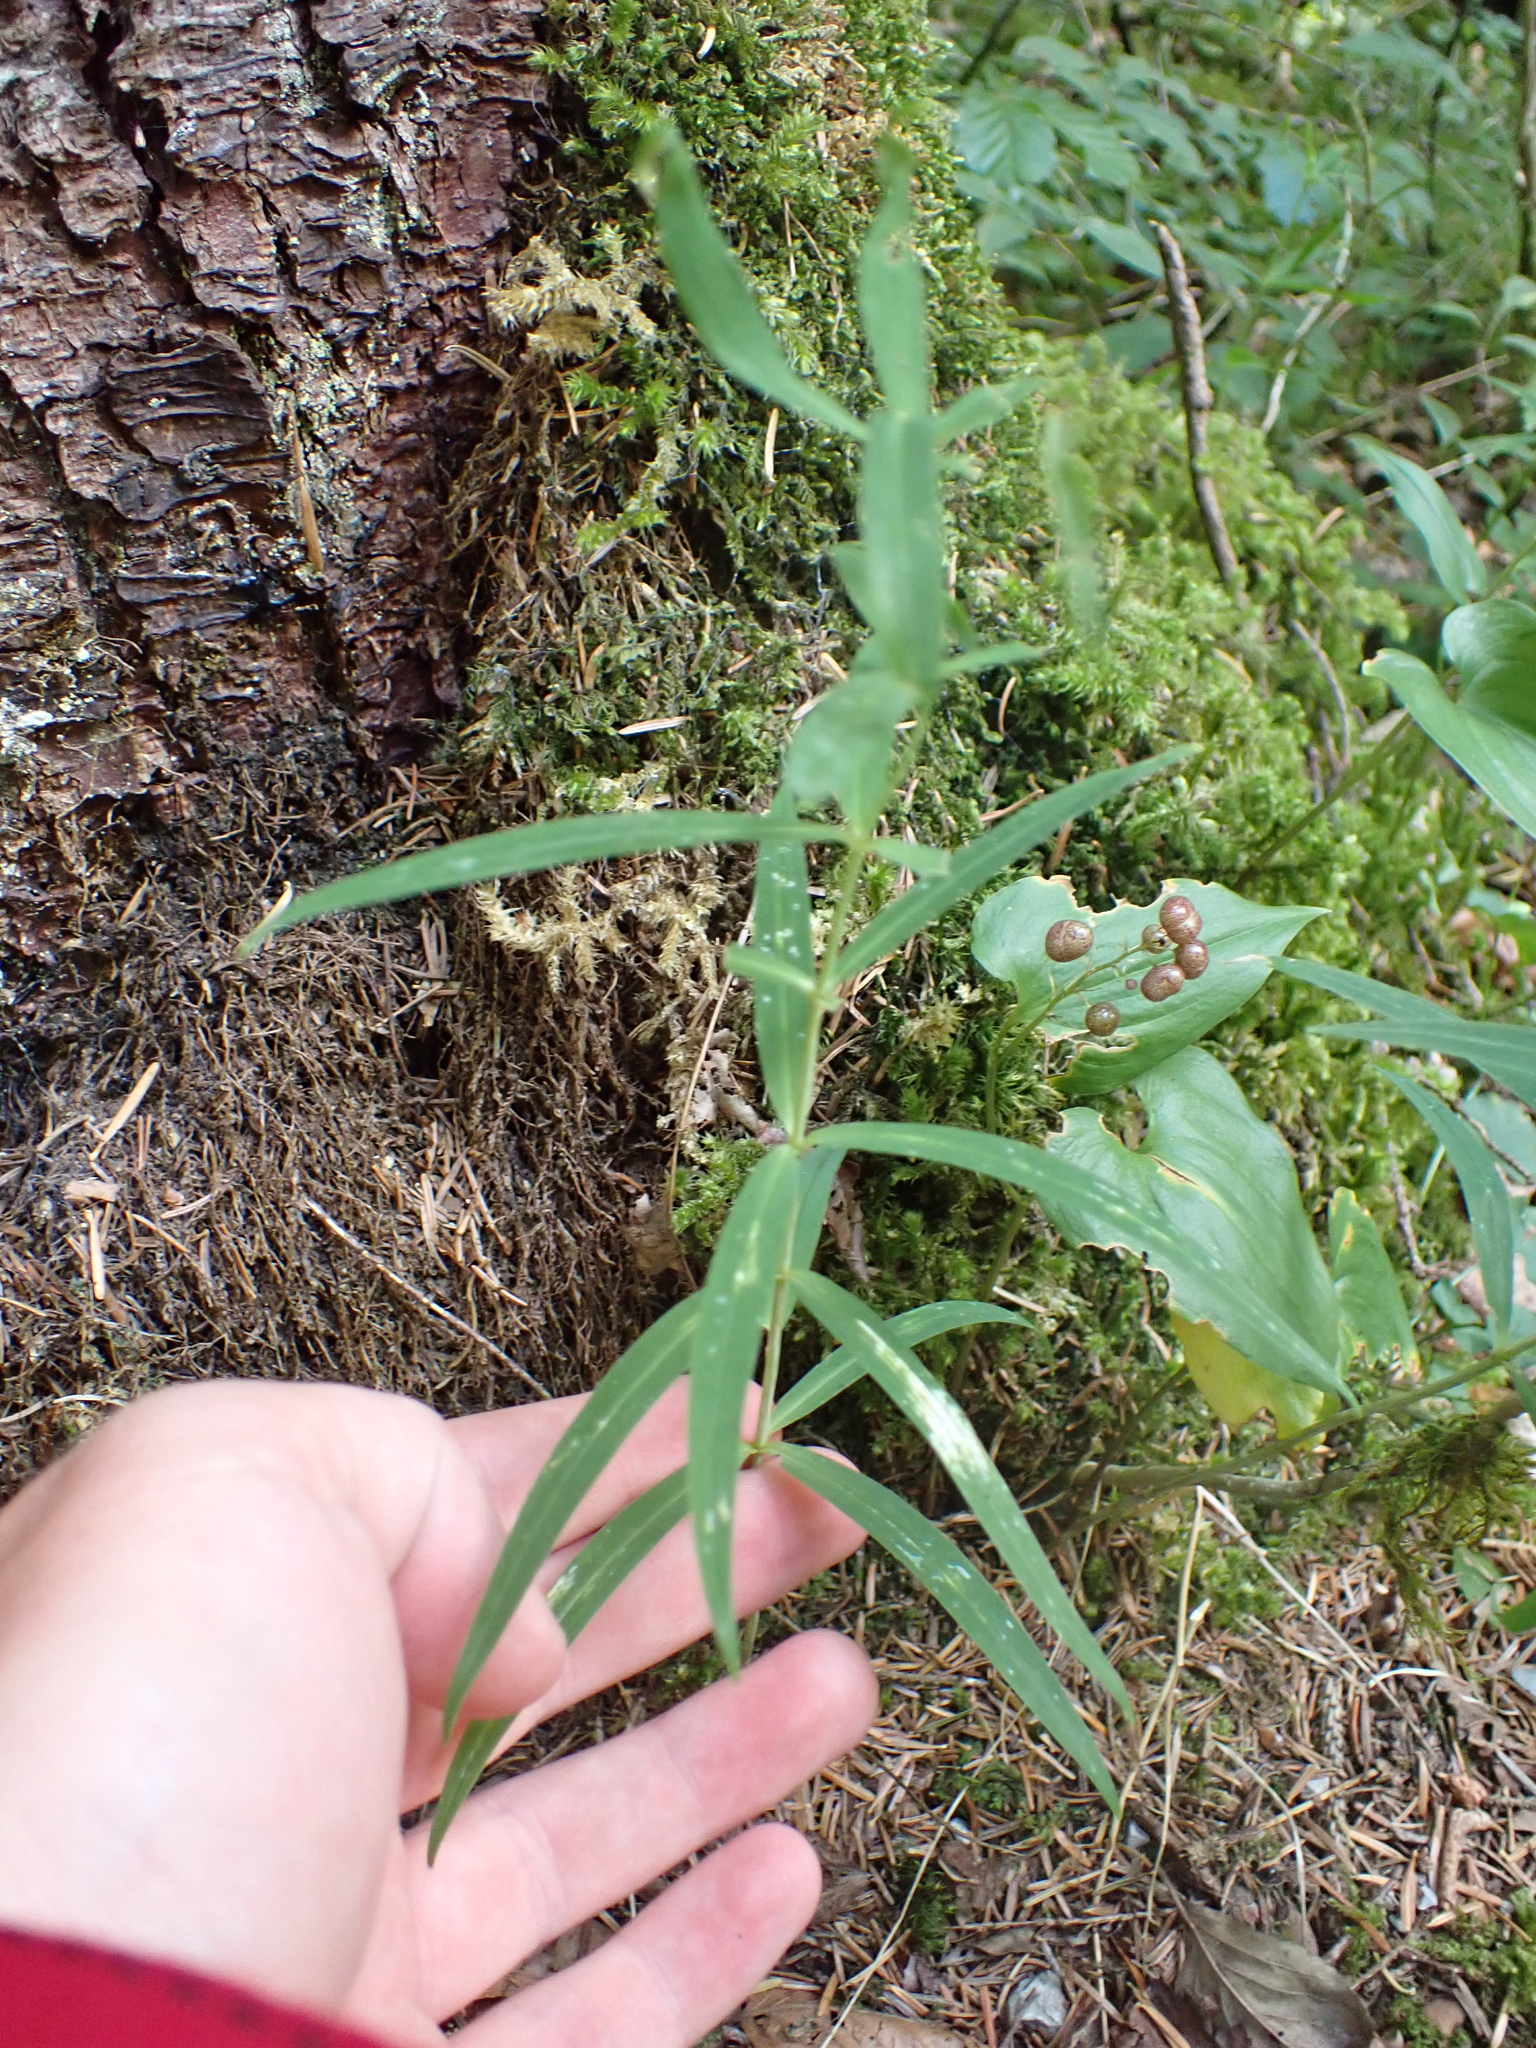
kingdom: Plantae
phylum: Tracheophyta
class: Liliopsida
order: Asparagales
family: Asparagaceae
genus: Polygonatum
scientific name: Polygonatum verticillatum
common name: Whorled solomon's-seal
